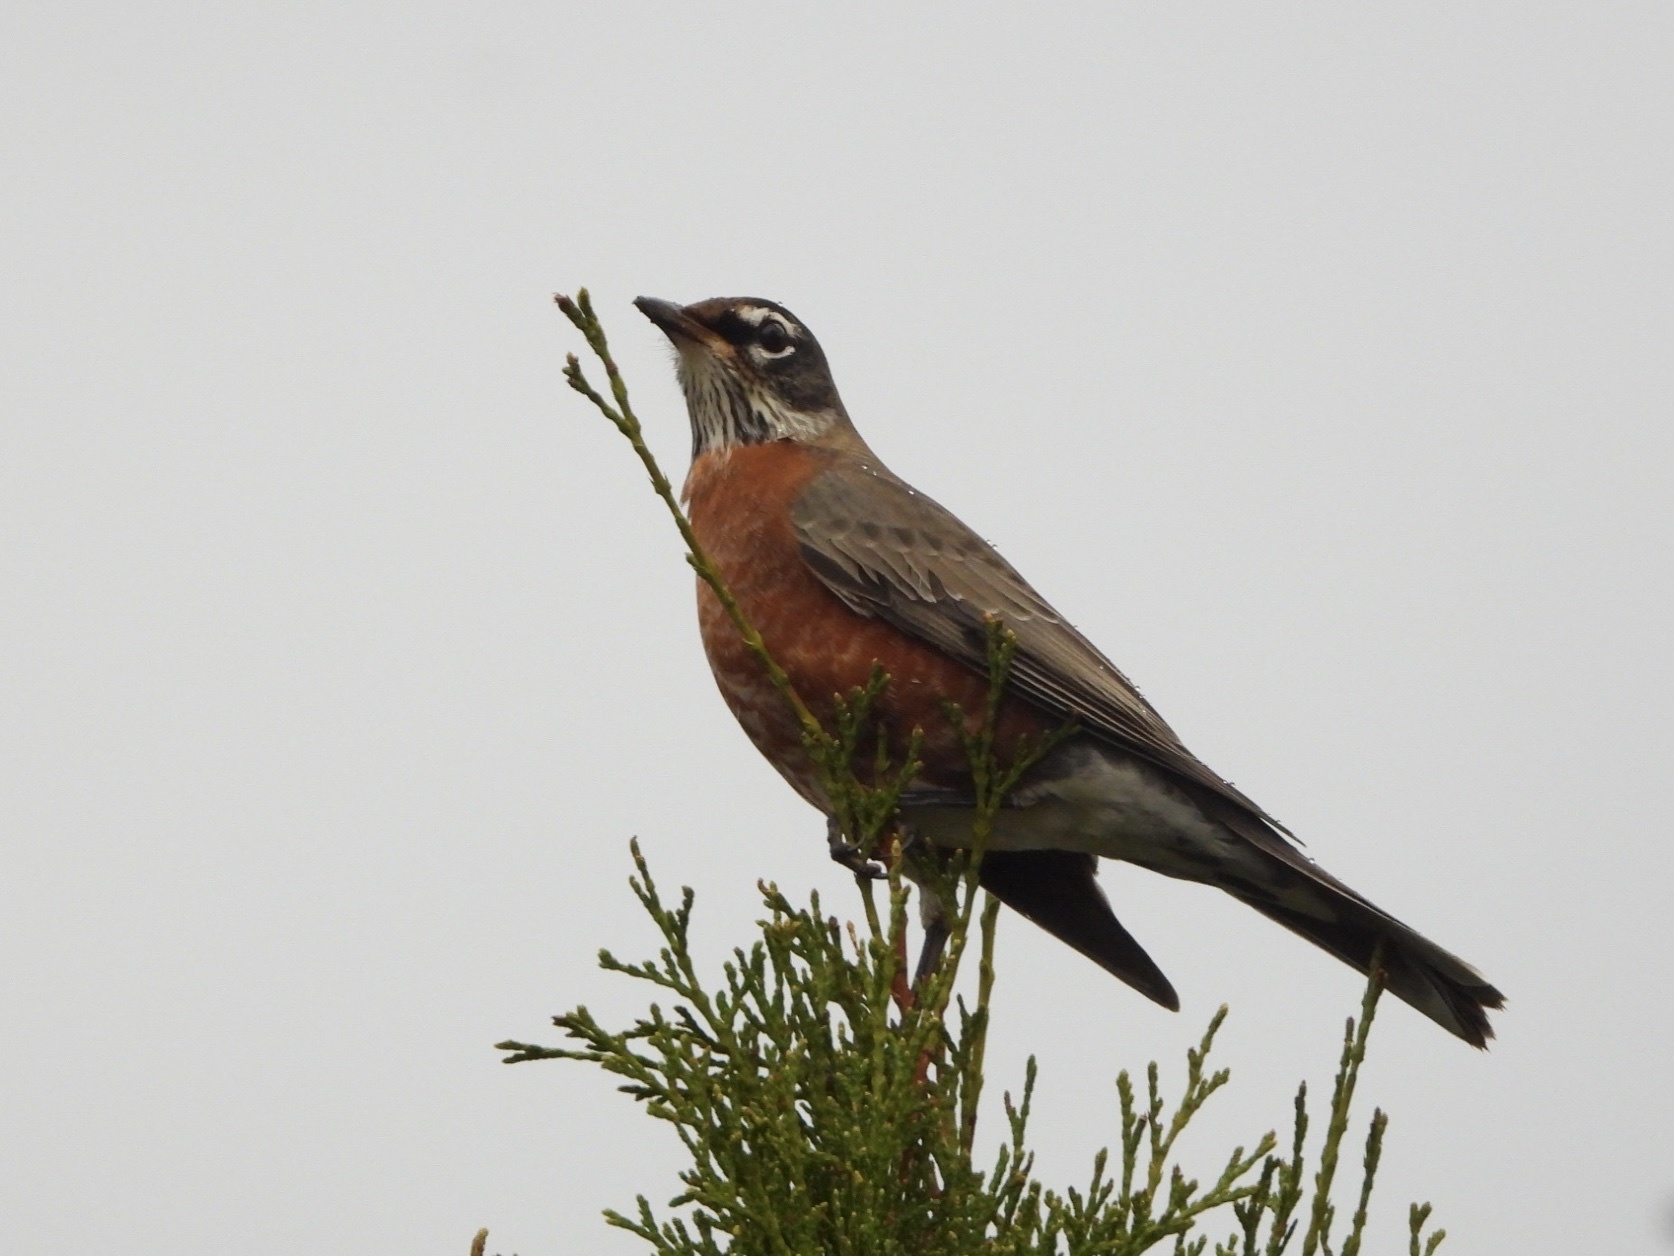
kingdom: Animalia
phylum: Chordata
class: Aves
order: Passeriformes
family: Turdidae
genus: Turdus
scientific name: Turdus migratorius
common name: American robin
